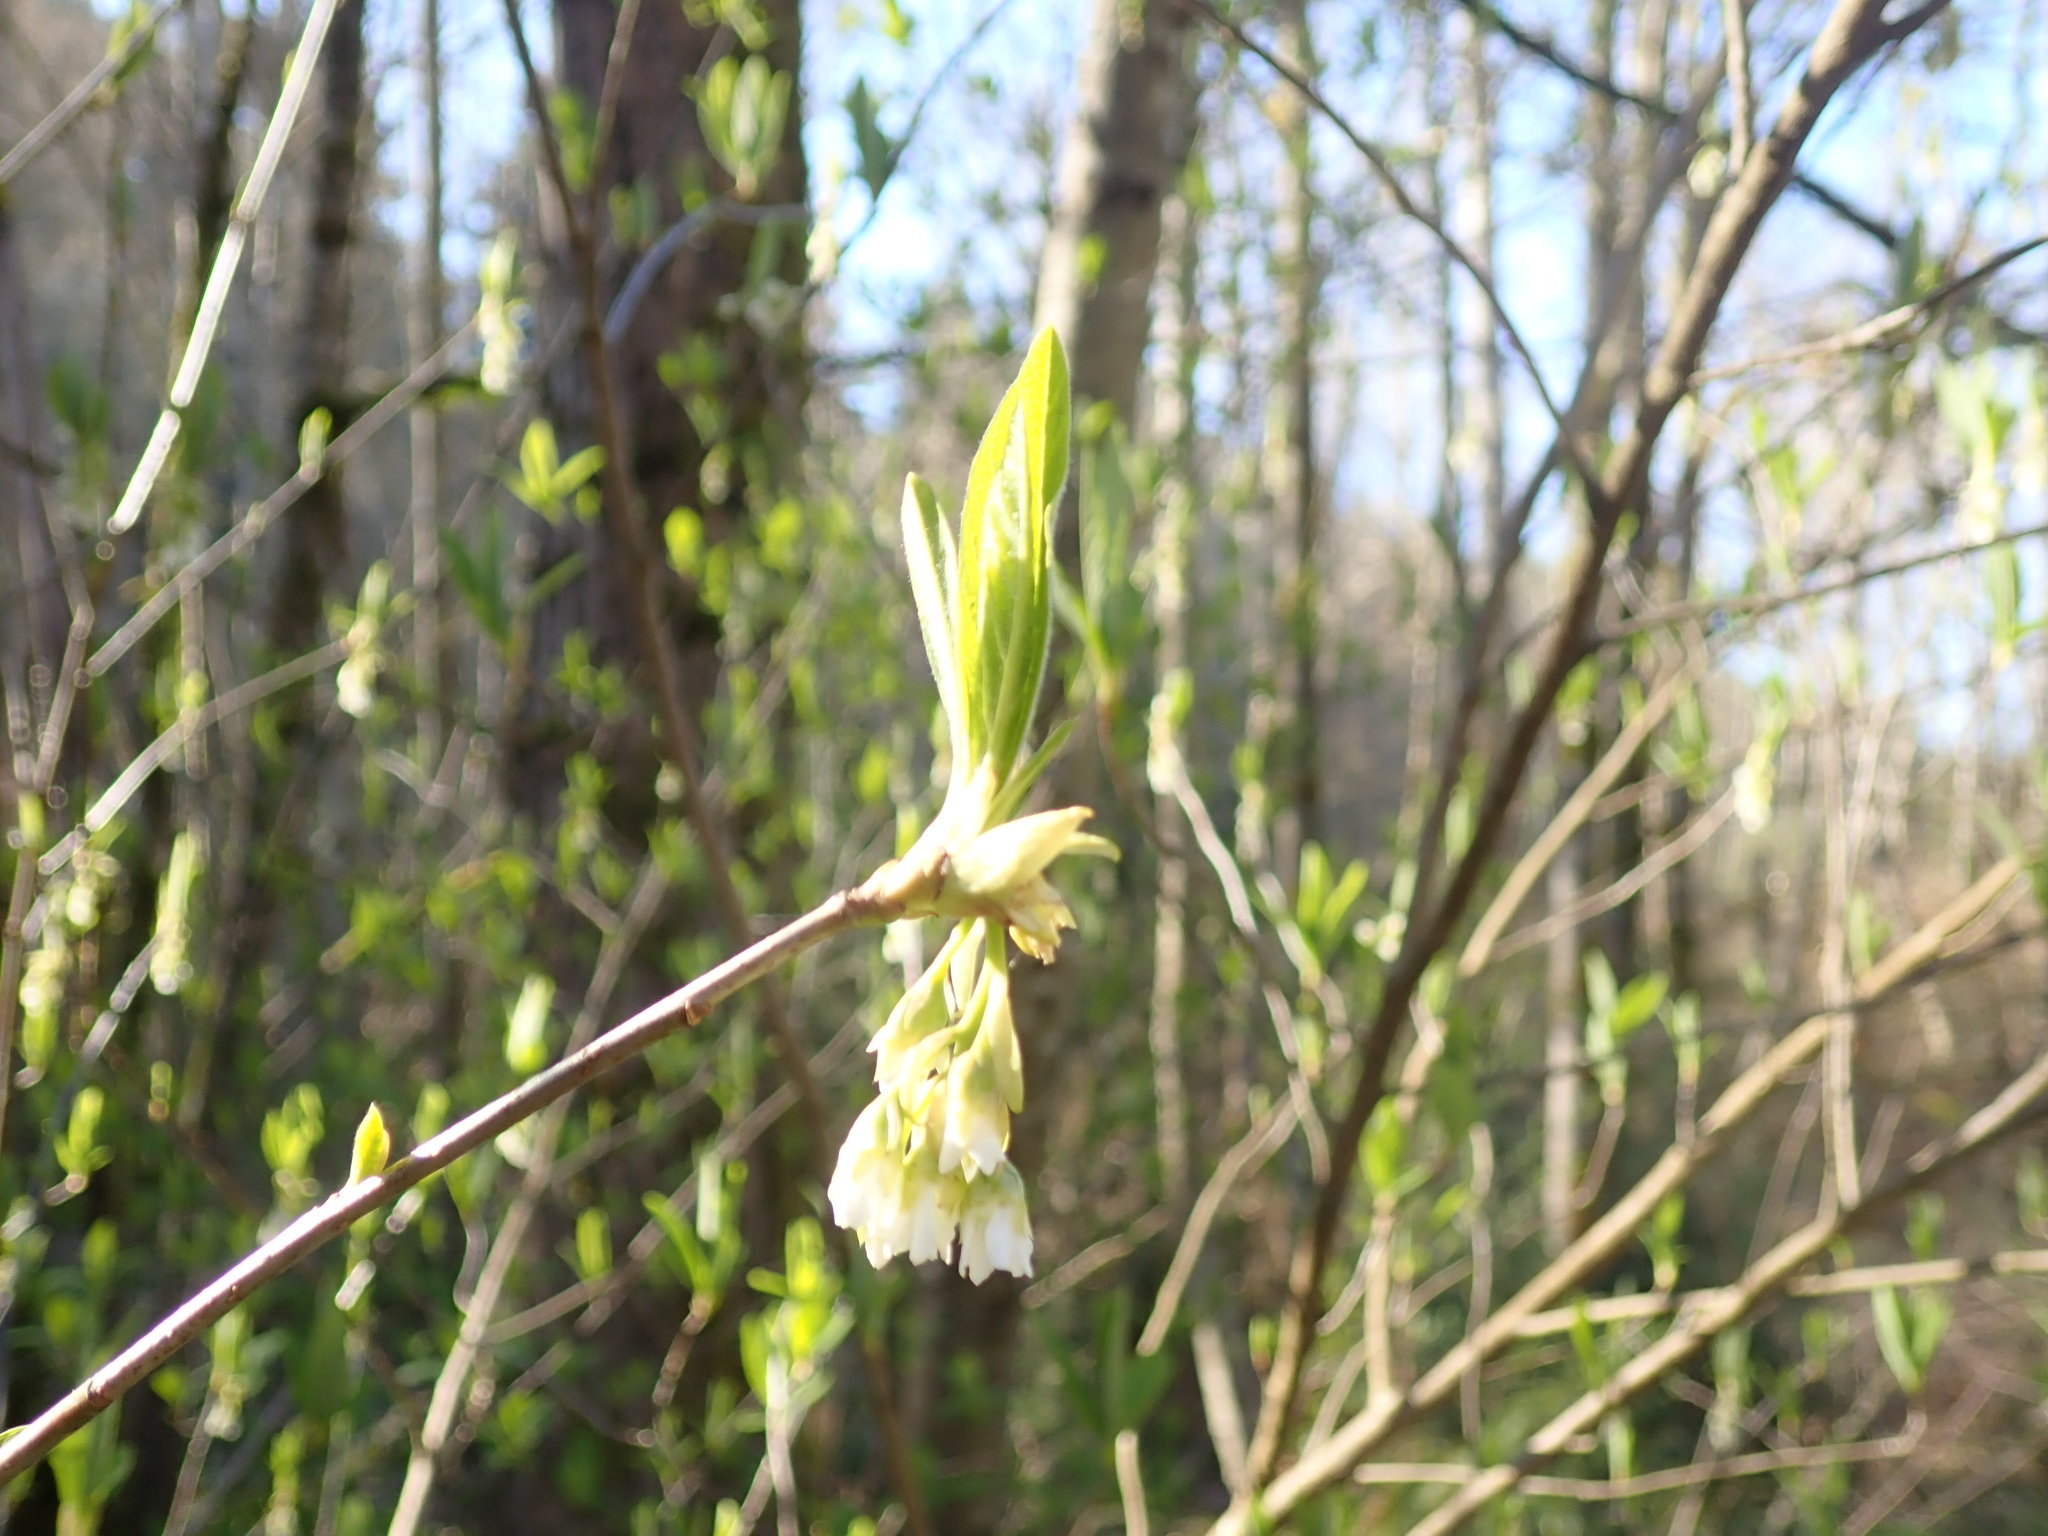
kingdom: Plantae
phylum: Tracheophyta
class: Magnoliopsida
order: Rosales
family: Rosaceae
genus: Oemleria
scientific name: Oemleria cerasiformis
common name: Osoberry
